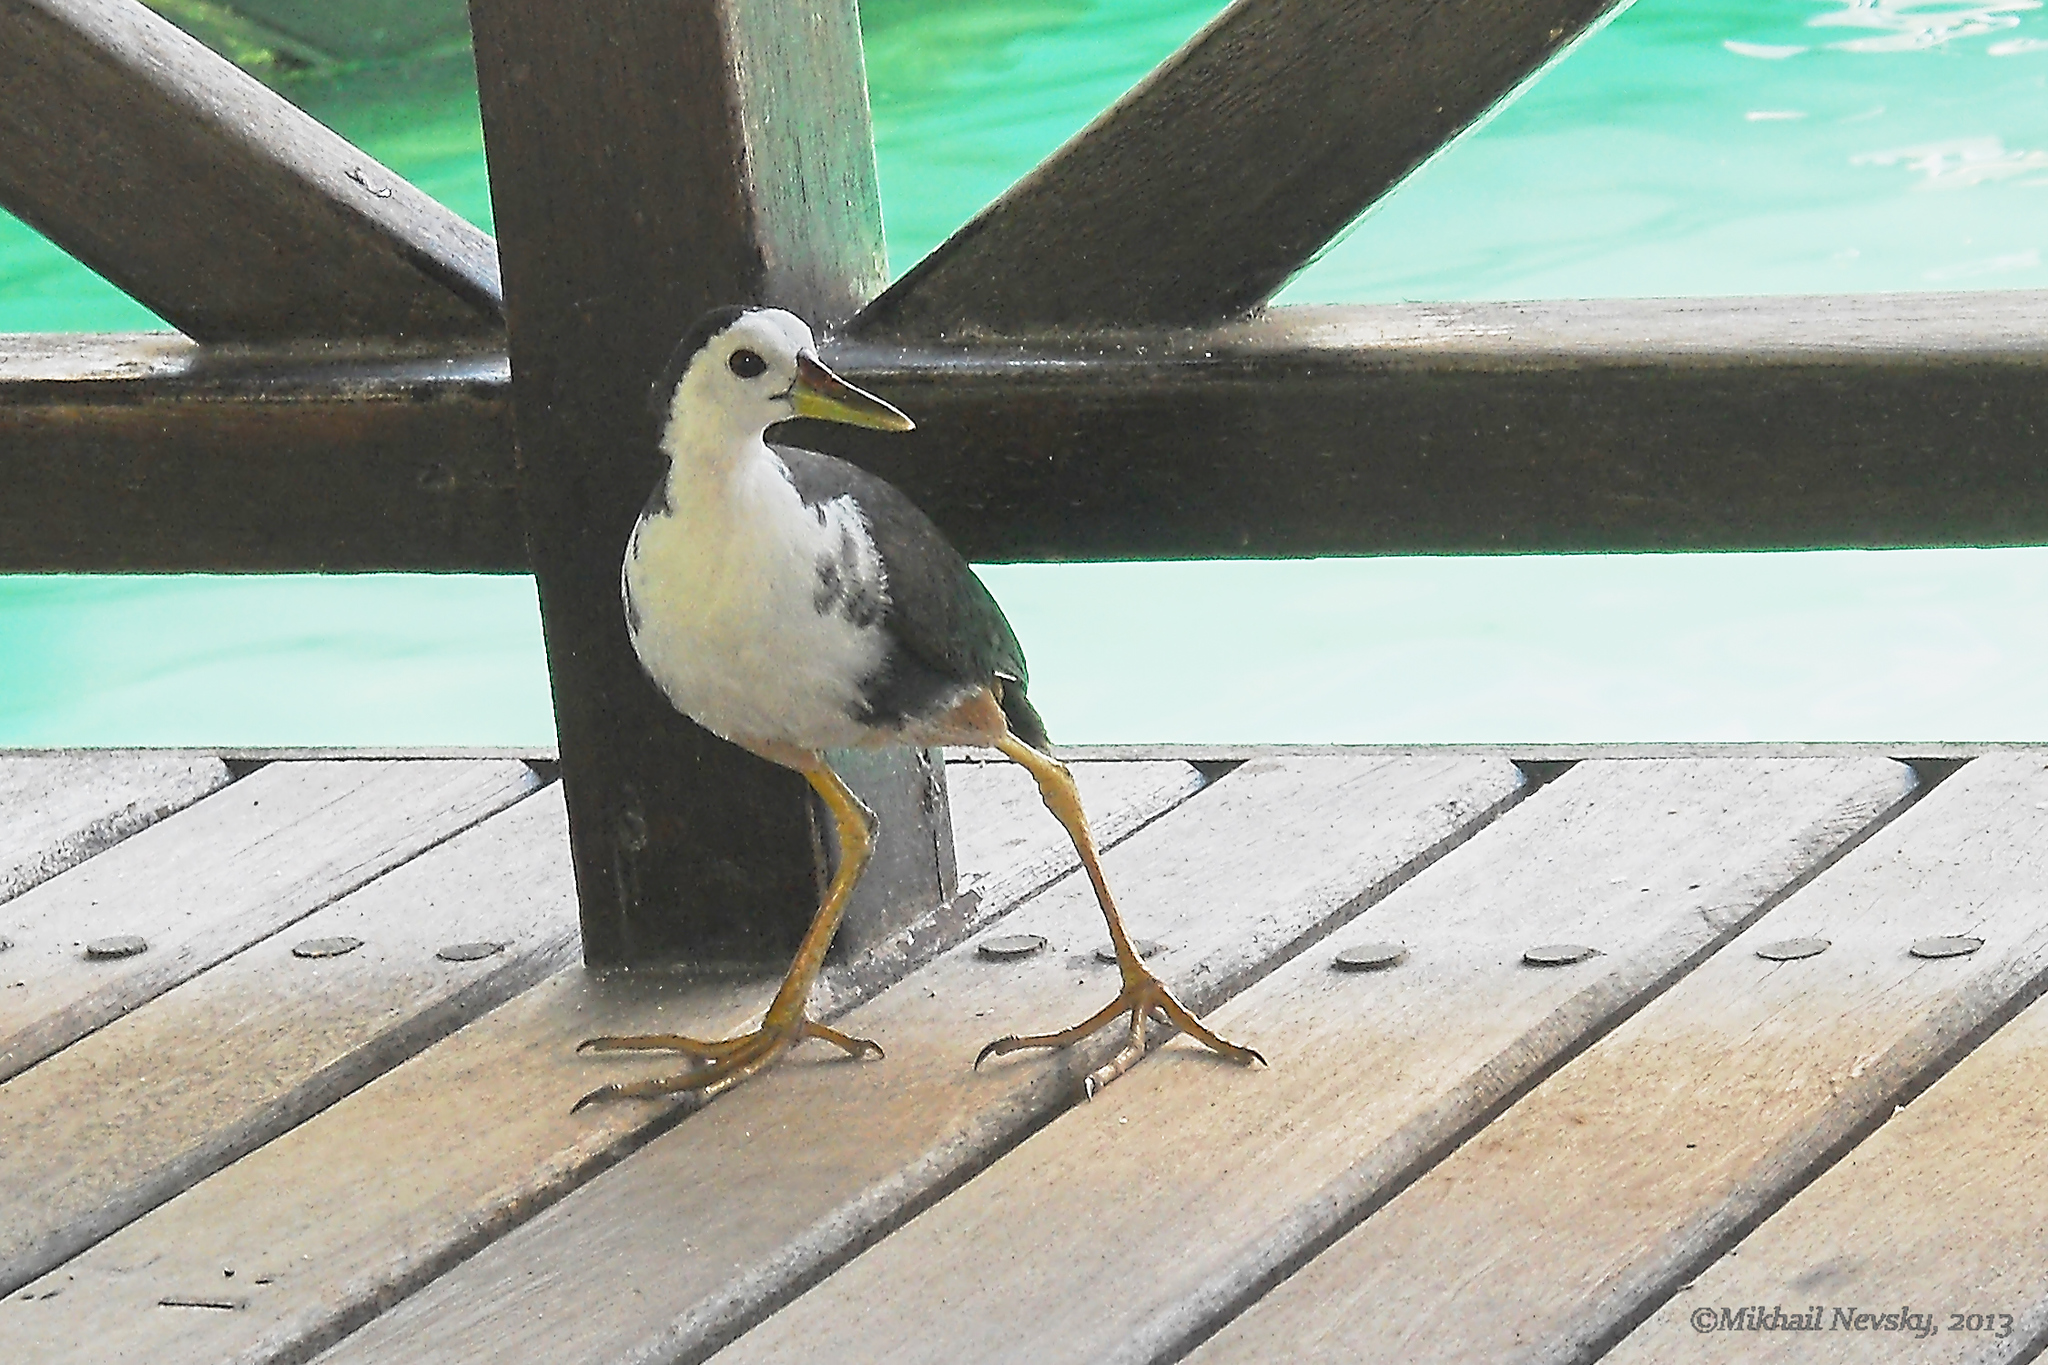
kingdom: Animalia
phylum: Chordata
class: Aves
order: Gruiformes
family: Rallidae
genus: Amaurornis
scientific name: Amaurornis phoenicurus
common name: White-breasted waterhen
